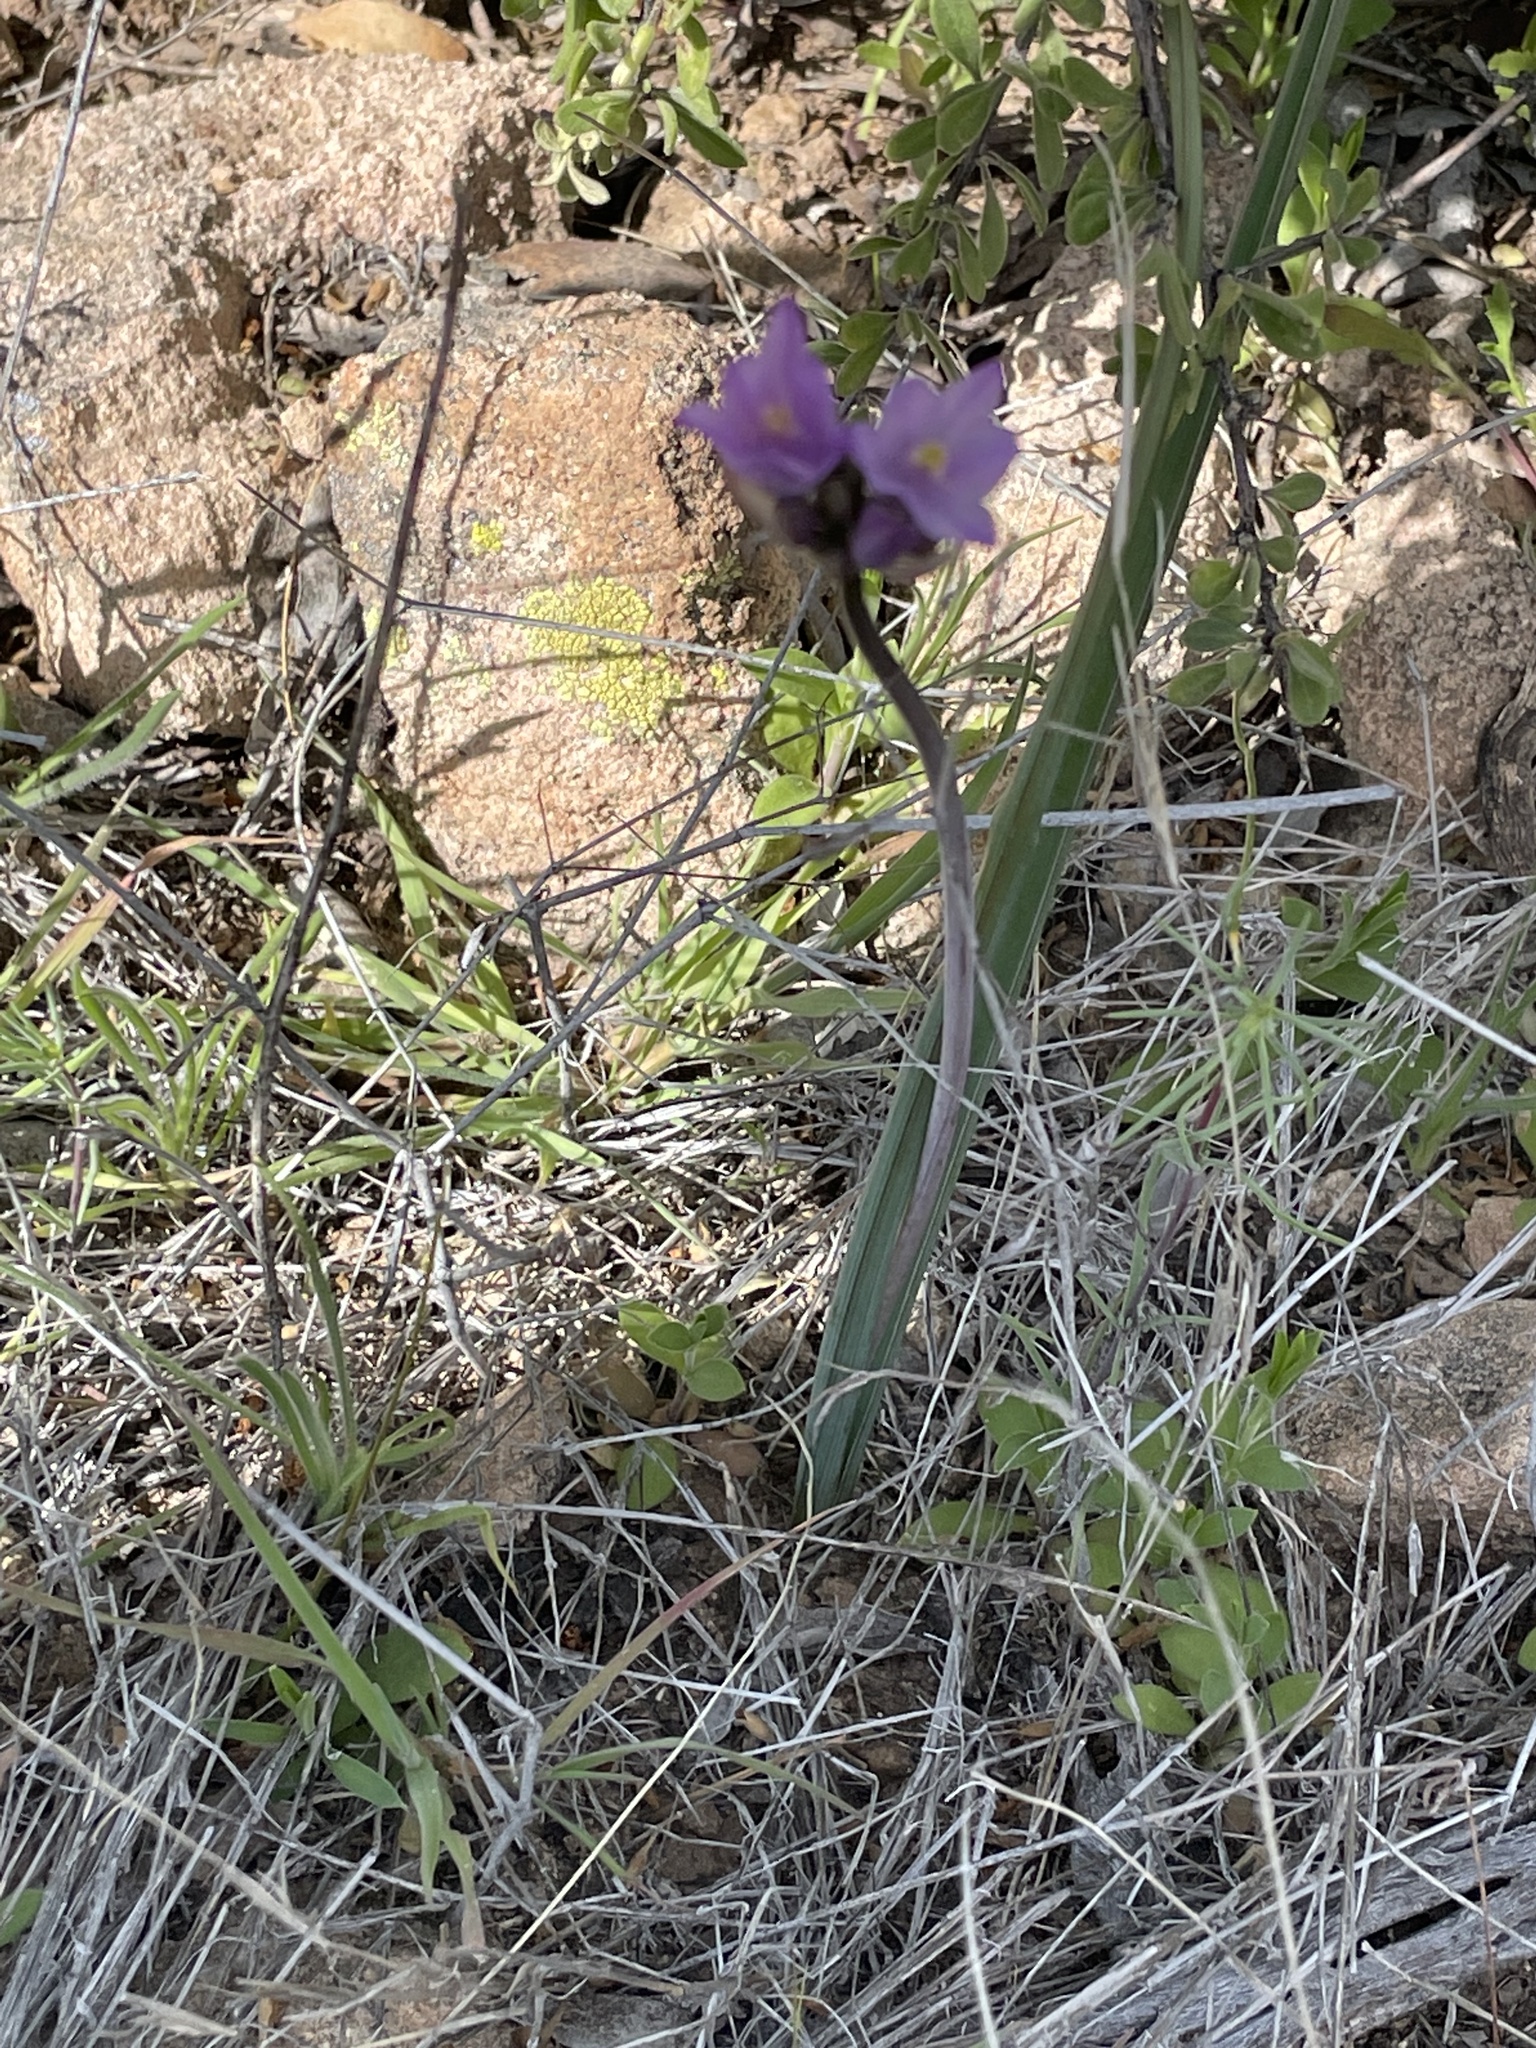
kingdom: Plantae
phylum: Tracheophyta
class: Liliopsida
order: Asparagales
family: Asparagaceae
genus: Dipterostemon
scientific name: Dipterostemon capitatus
